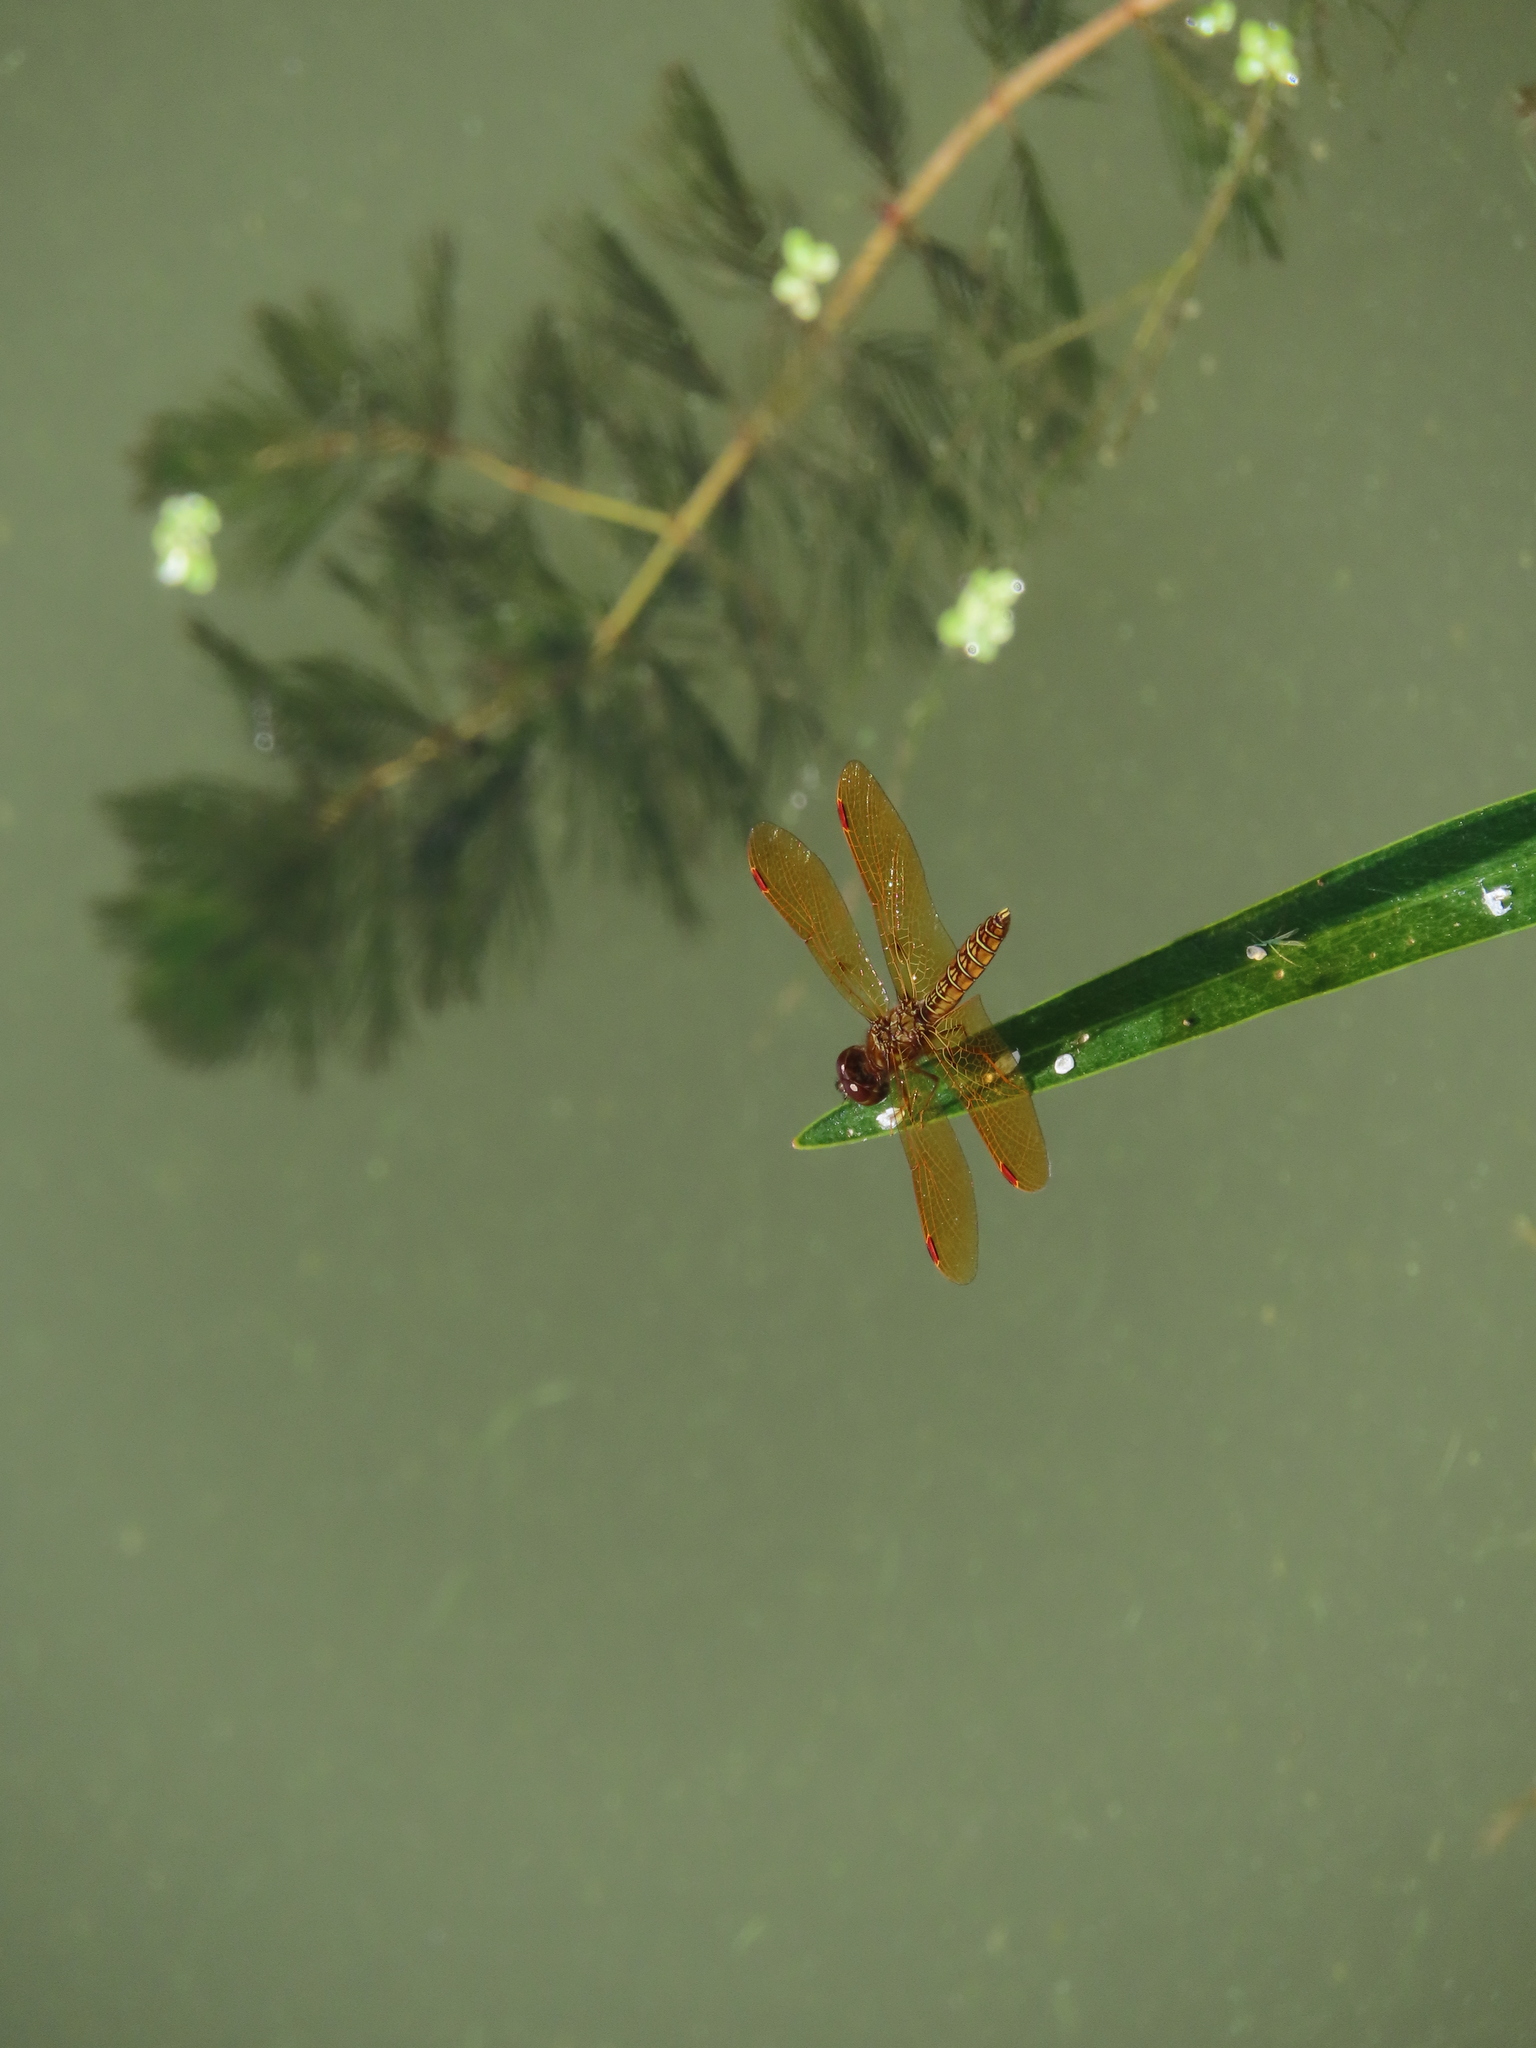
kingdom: Animalia
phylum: Arthropoda
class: Insecta
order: Odonata
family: Libellulidae
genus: Perithemis
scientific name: Perithemis tenera
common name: Eastern amberwing
